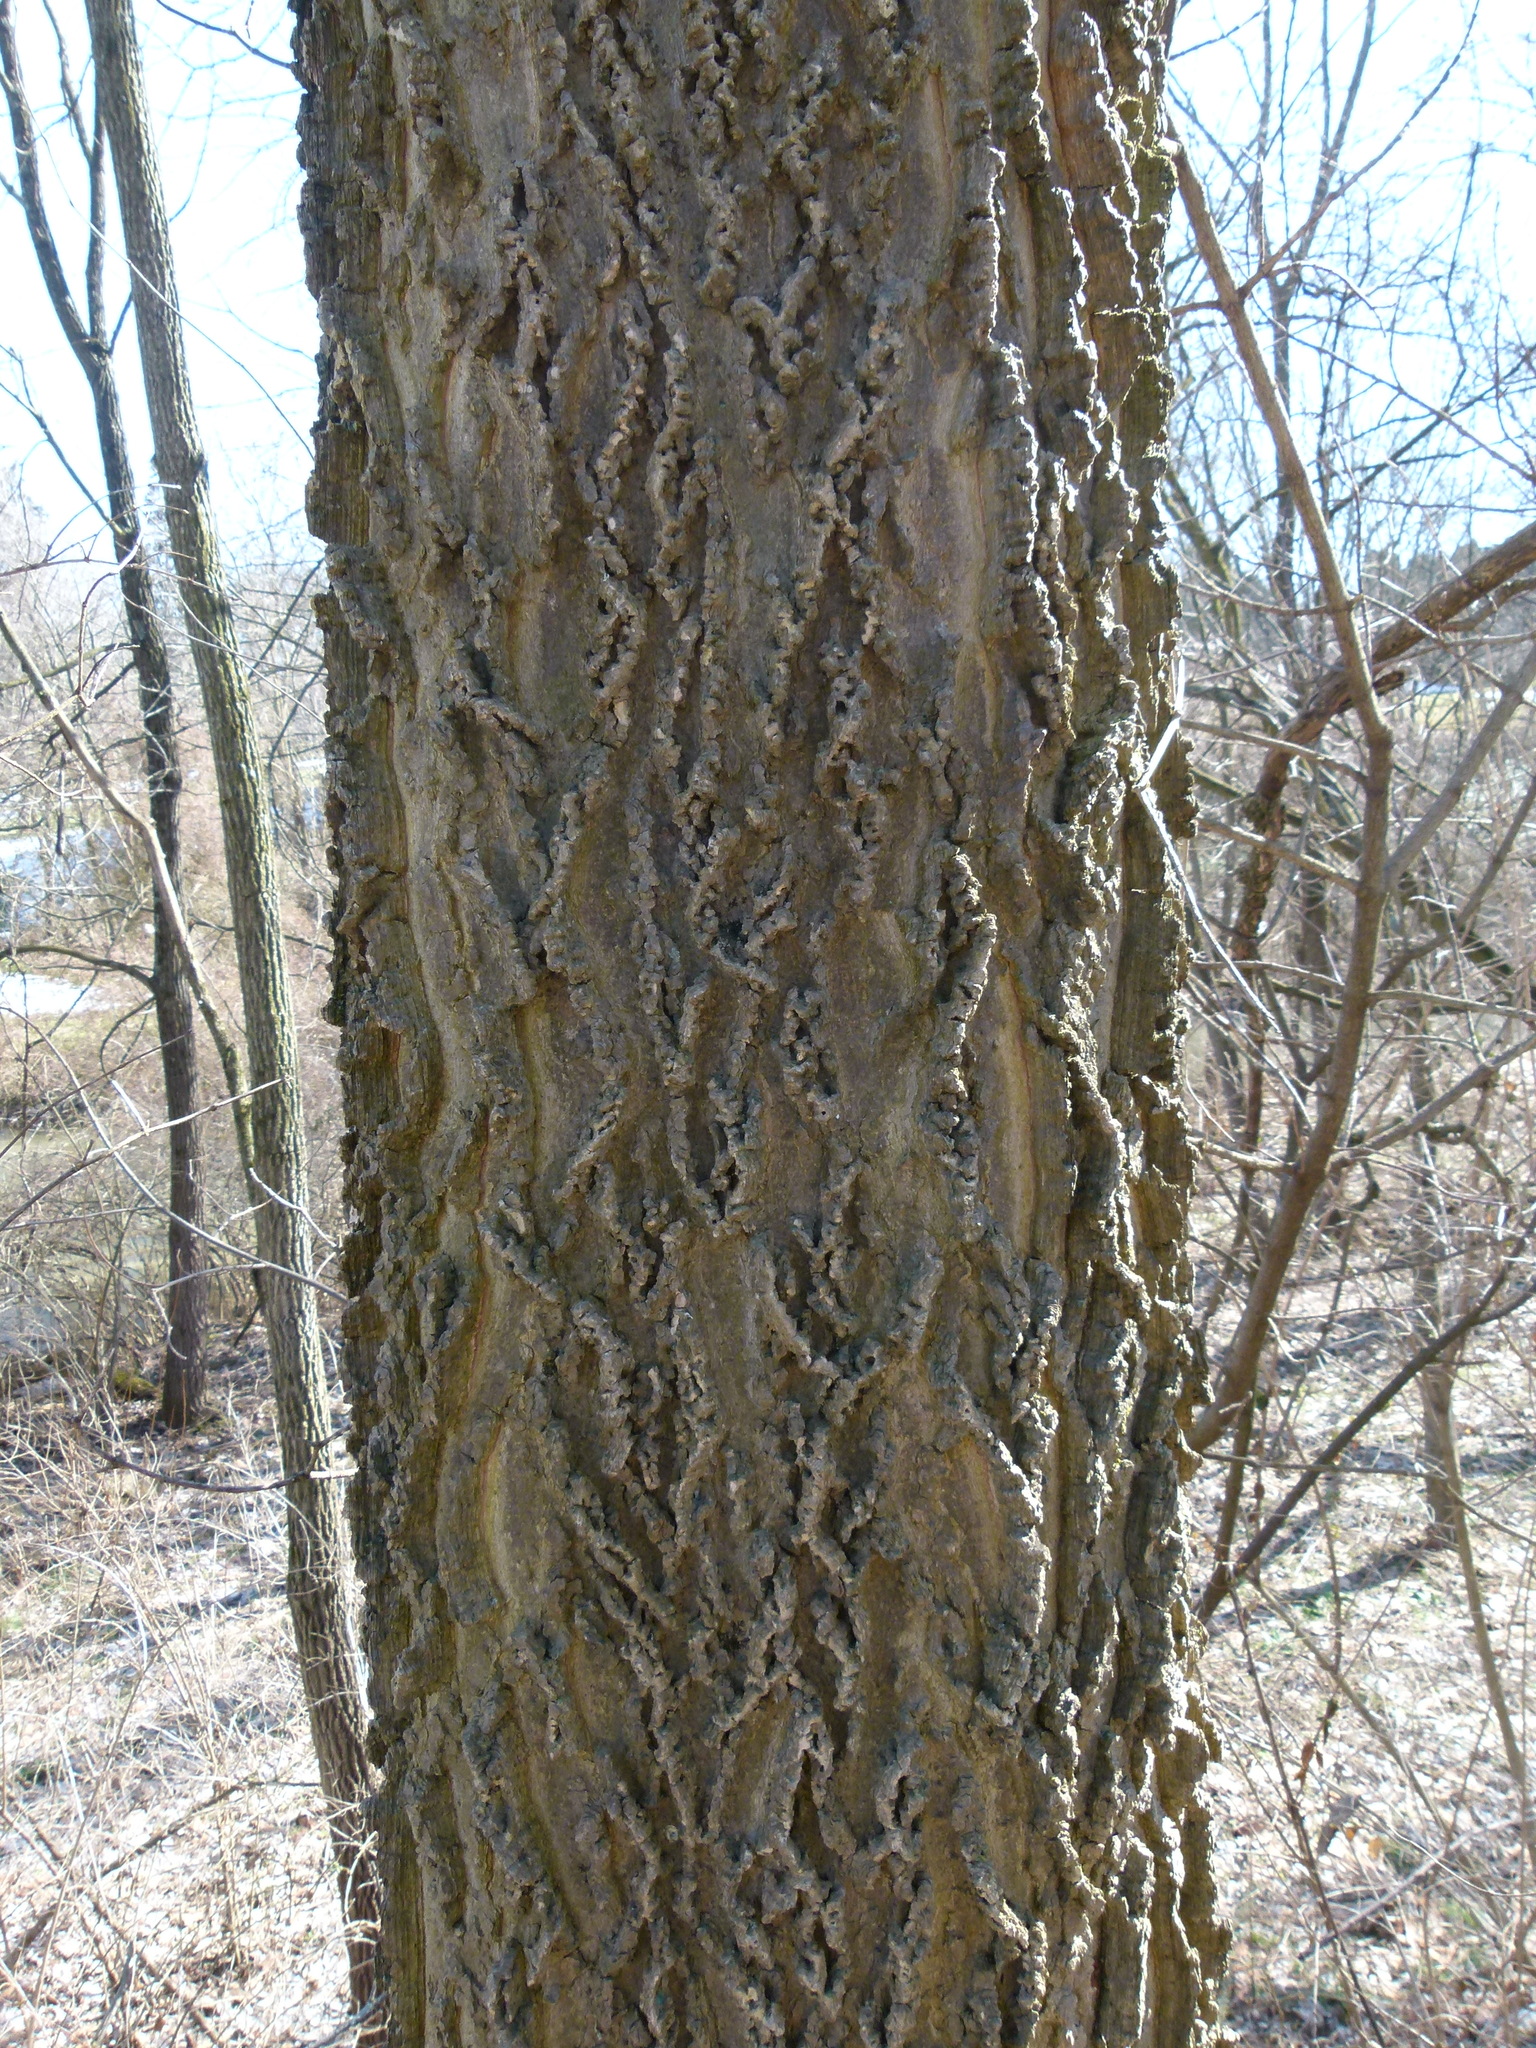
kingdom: Plantae
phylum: Tracheophyta
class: Magnoliopsida
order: Rosales
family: Cannabaceae
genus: Celtis
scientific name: Celtis occidentalis
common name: Common hackberry
